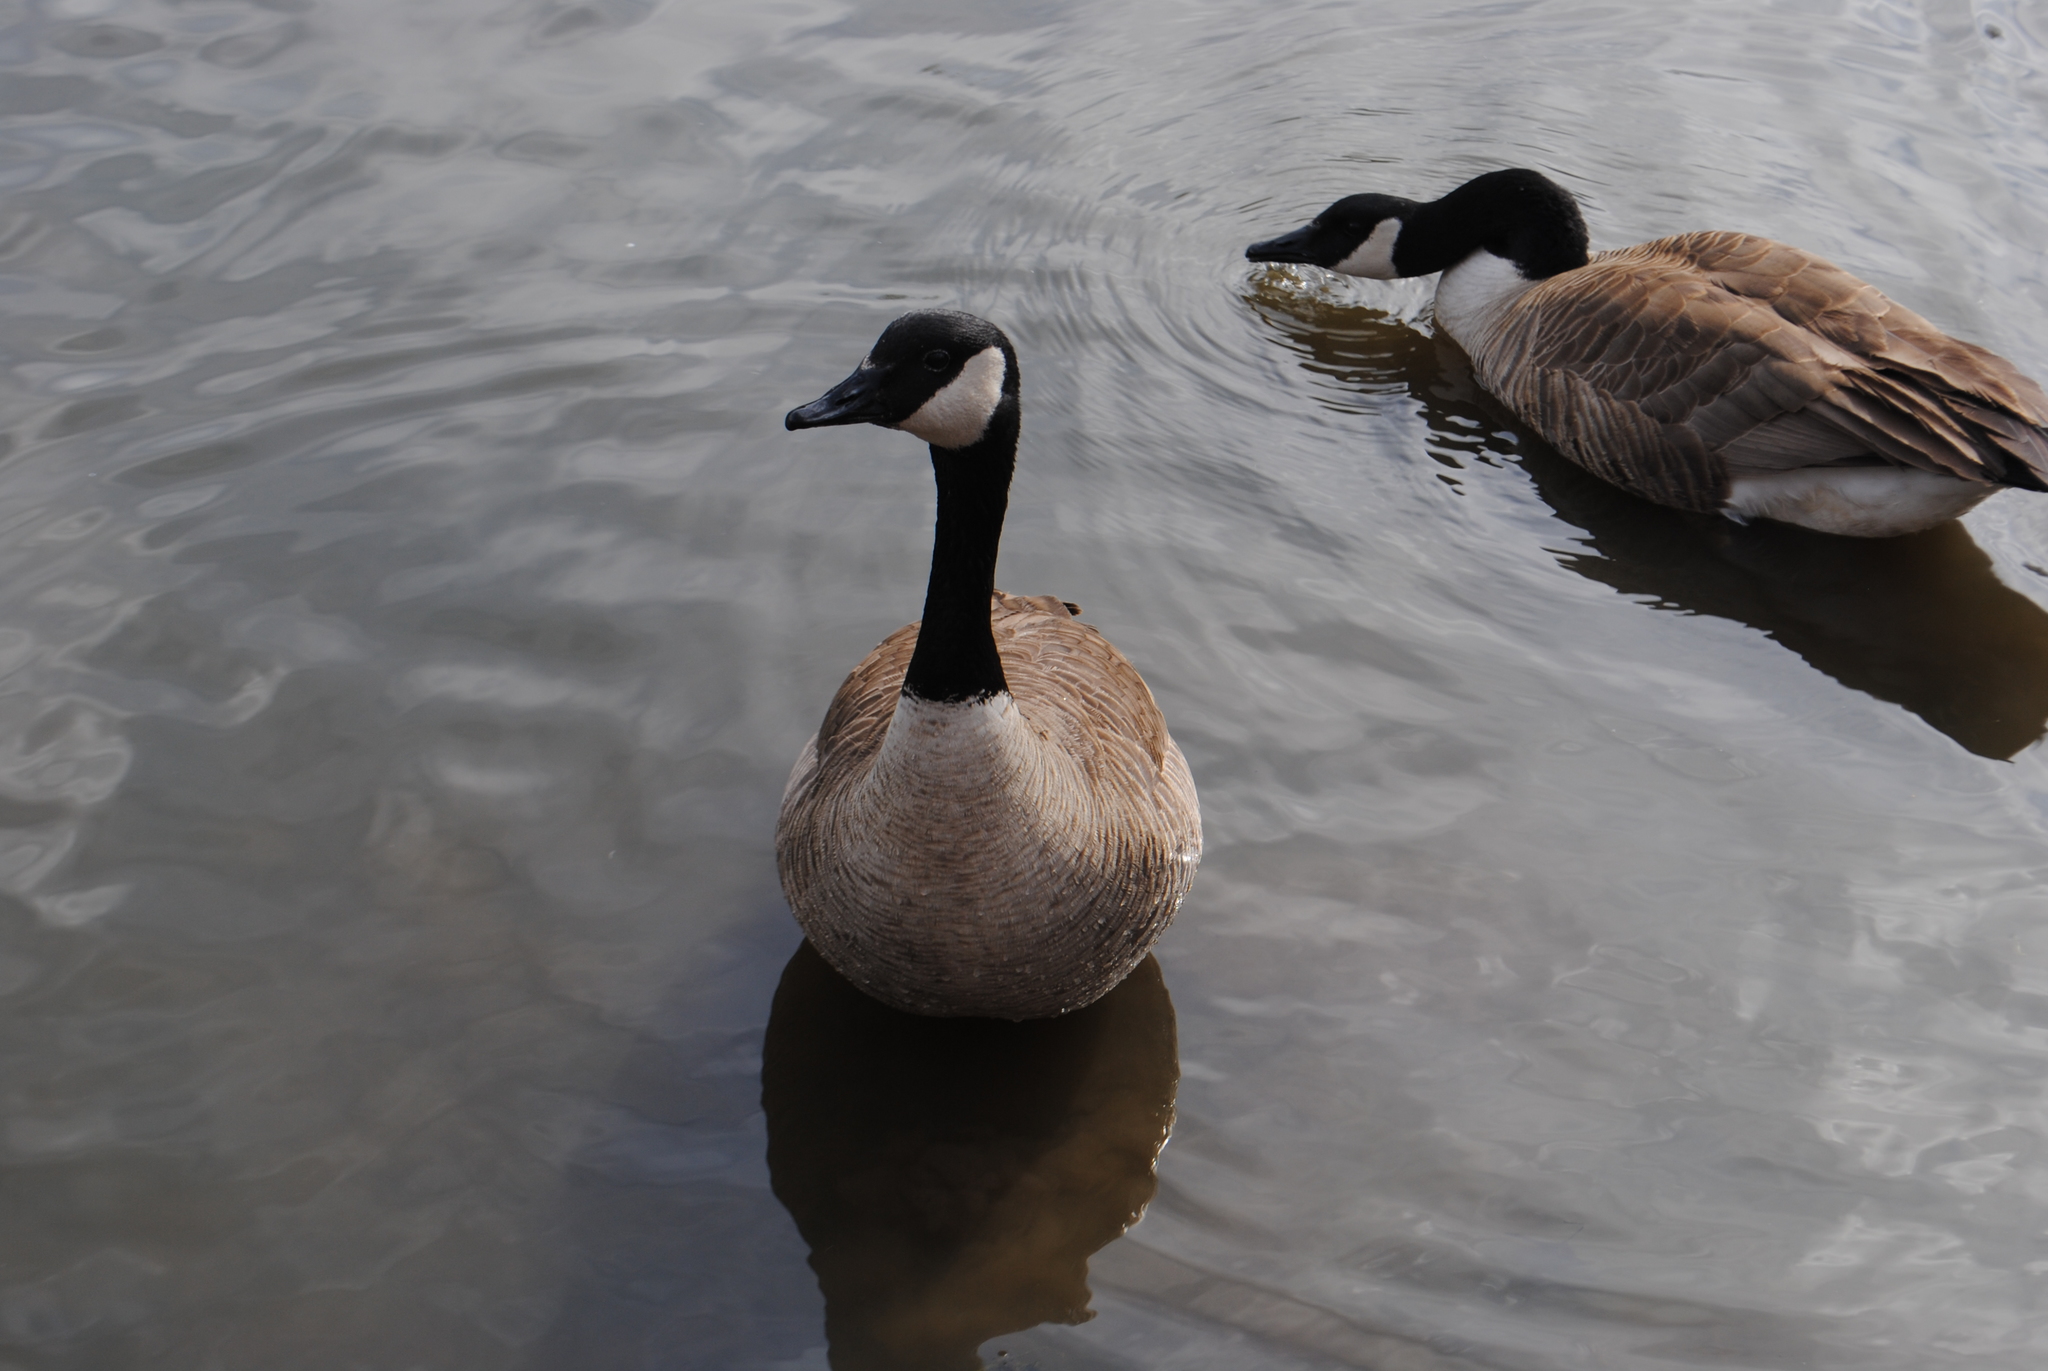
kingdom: Animalia
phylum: Chordata
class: Aves
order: Anseriformes
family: Anatidae
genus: Branta
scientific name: Branta canadensis
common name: Canada goose
